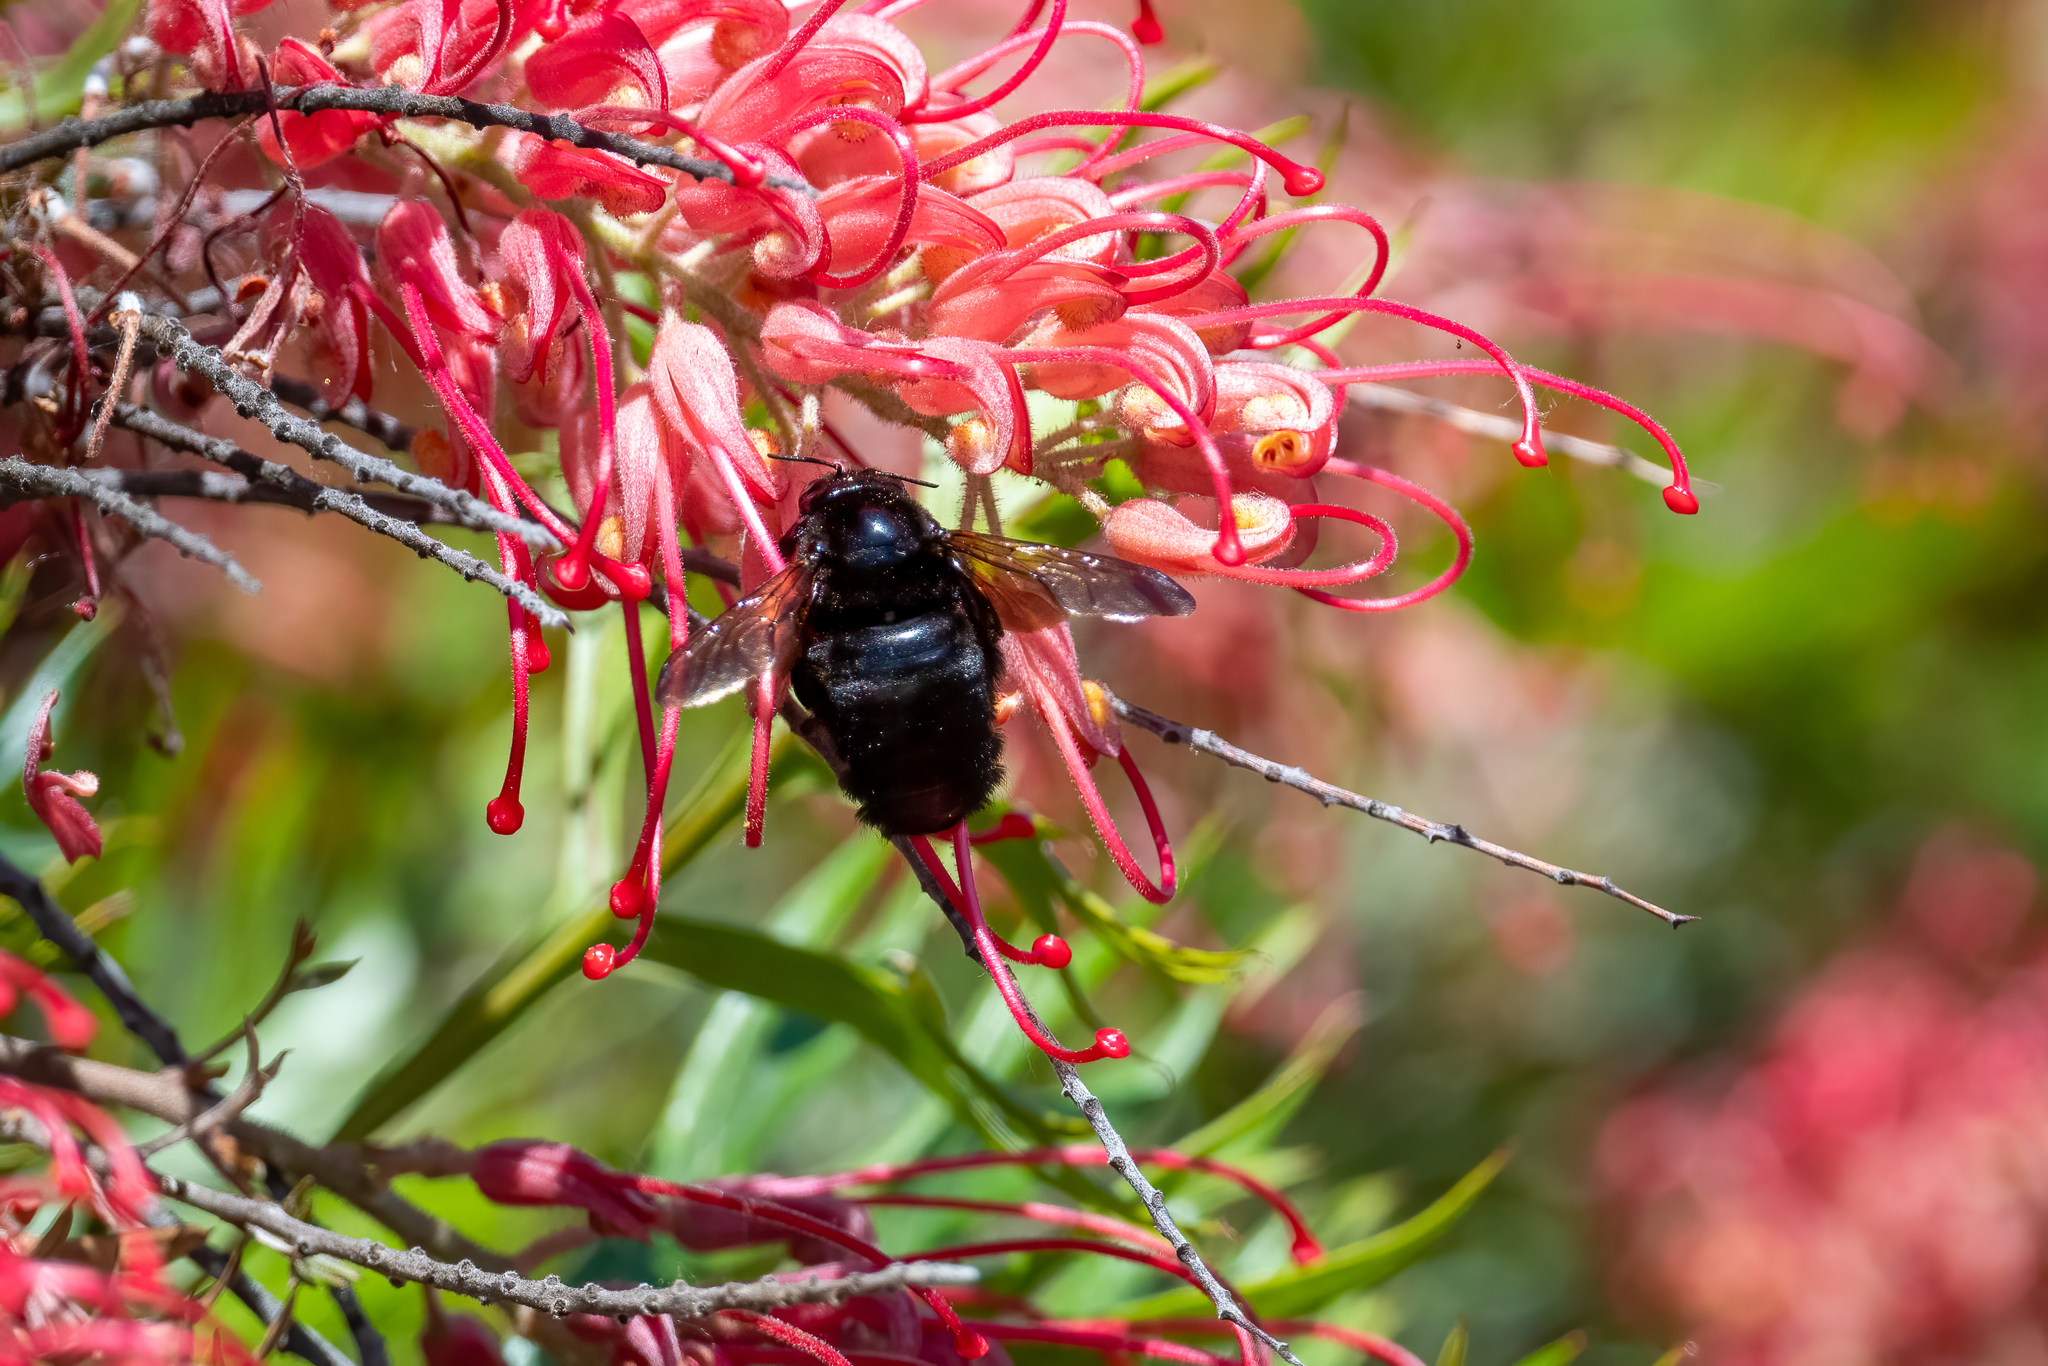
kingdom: Animalia
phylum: Arthropoda
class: Insecta
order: Hymenoptera
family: Apidae
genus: Xylocopa
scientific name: Xylocopa sonorina
